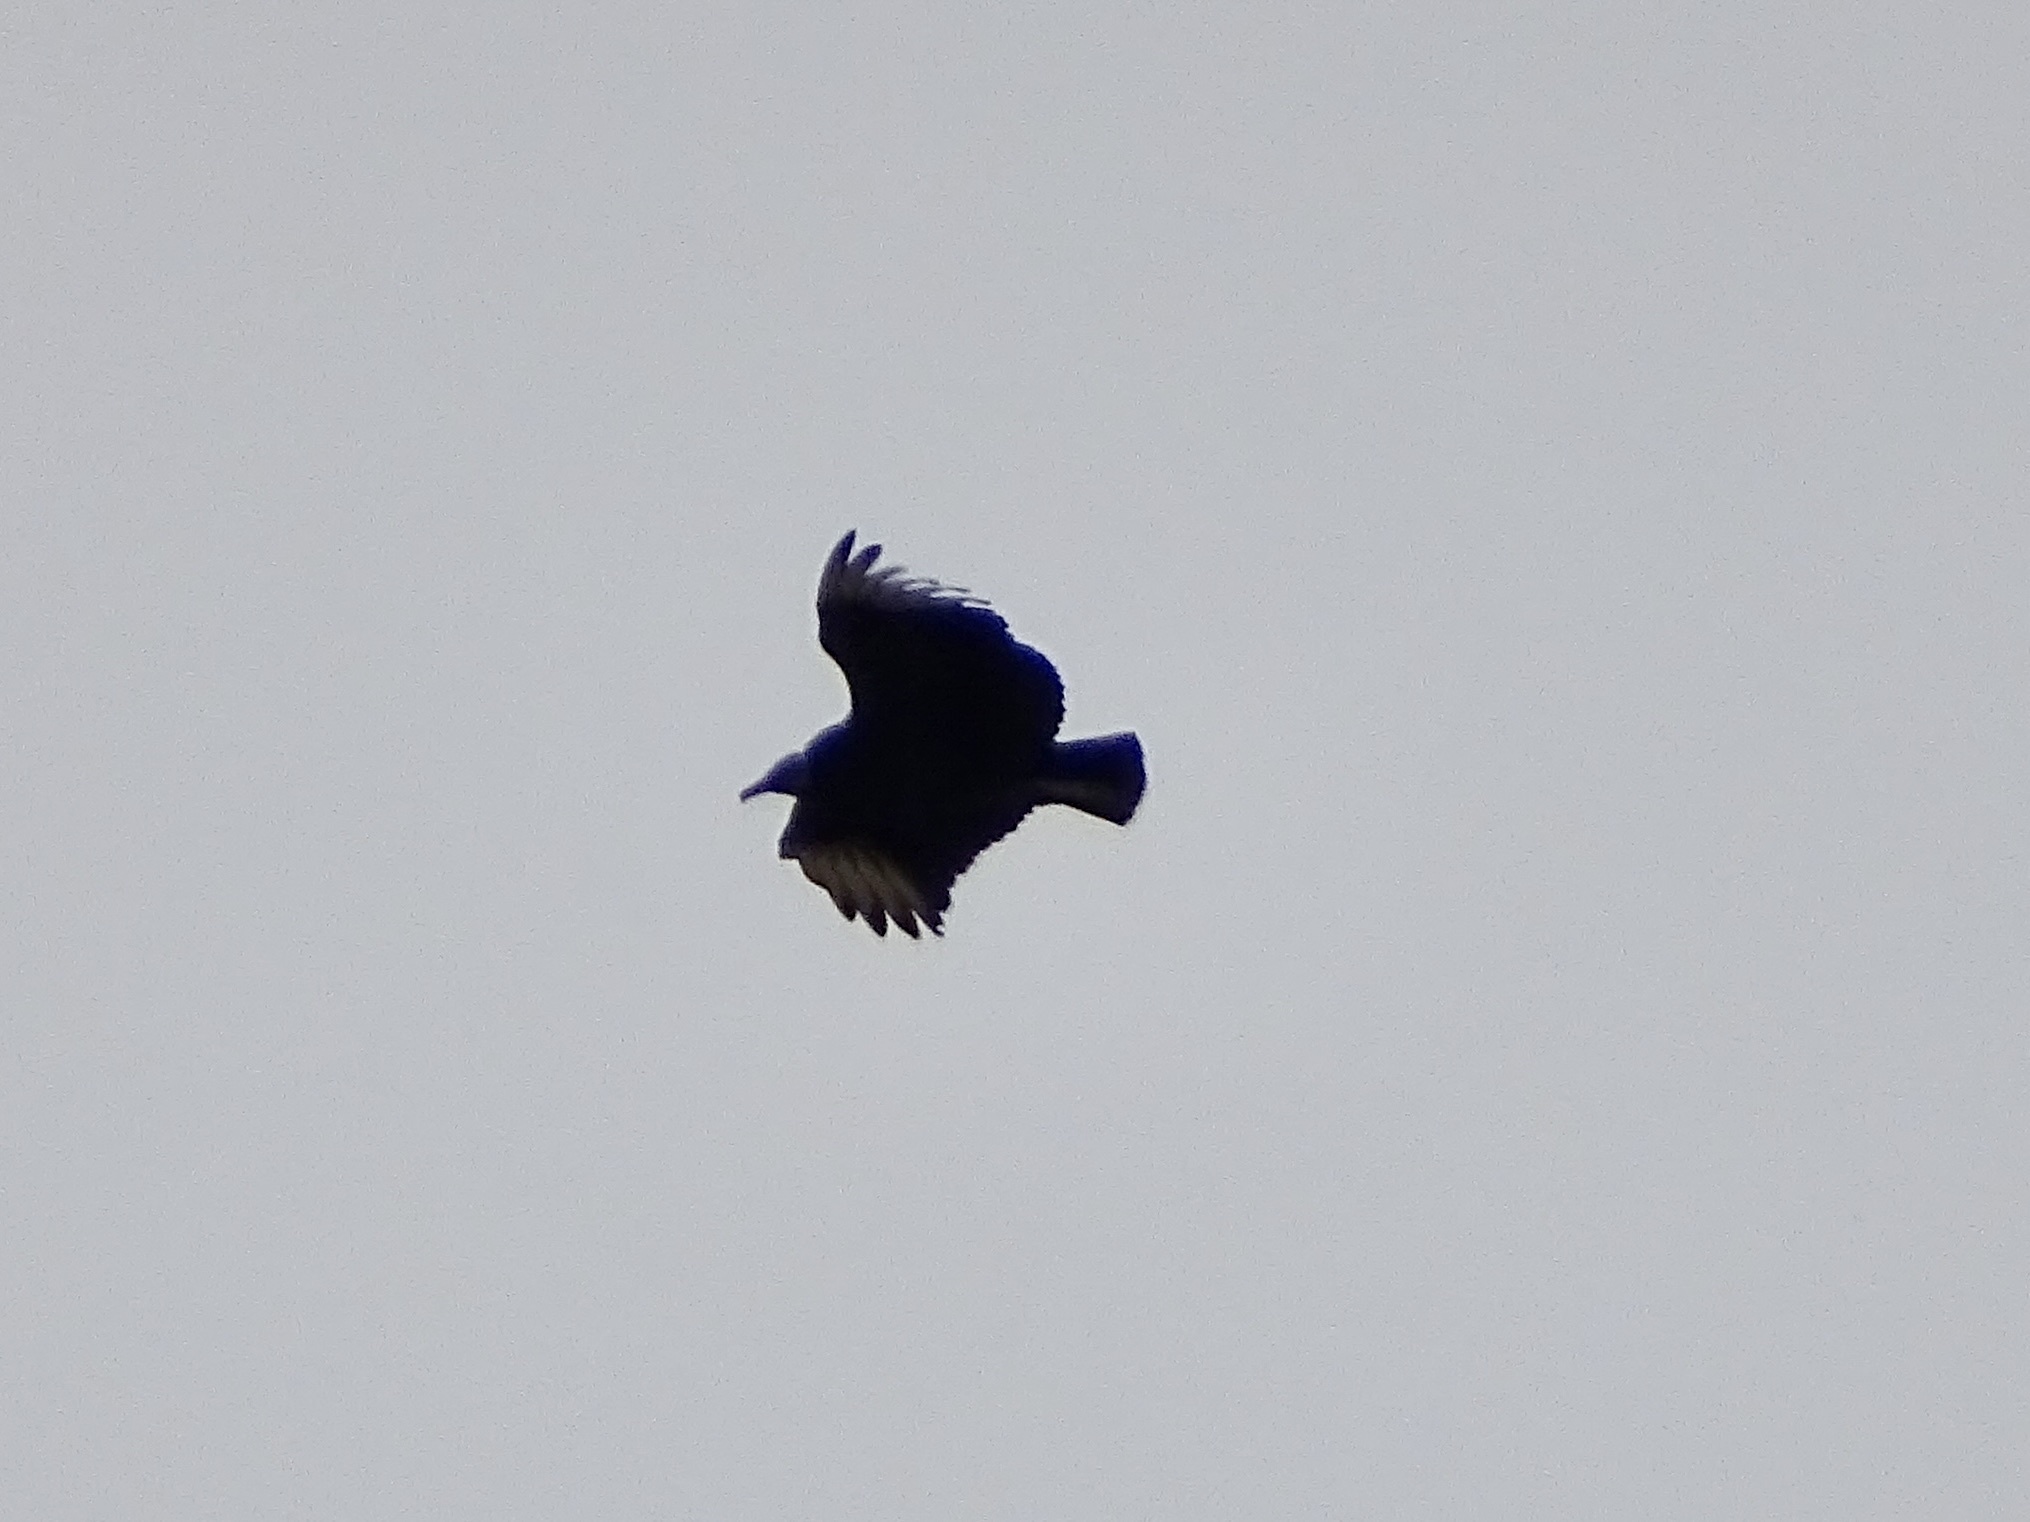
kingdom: Animalia
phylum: Chordata
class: Aves
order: Accipitriformes
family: Cathartidae
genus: Coragyps
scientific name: Coragyps atratus
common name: Black vulture
